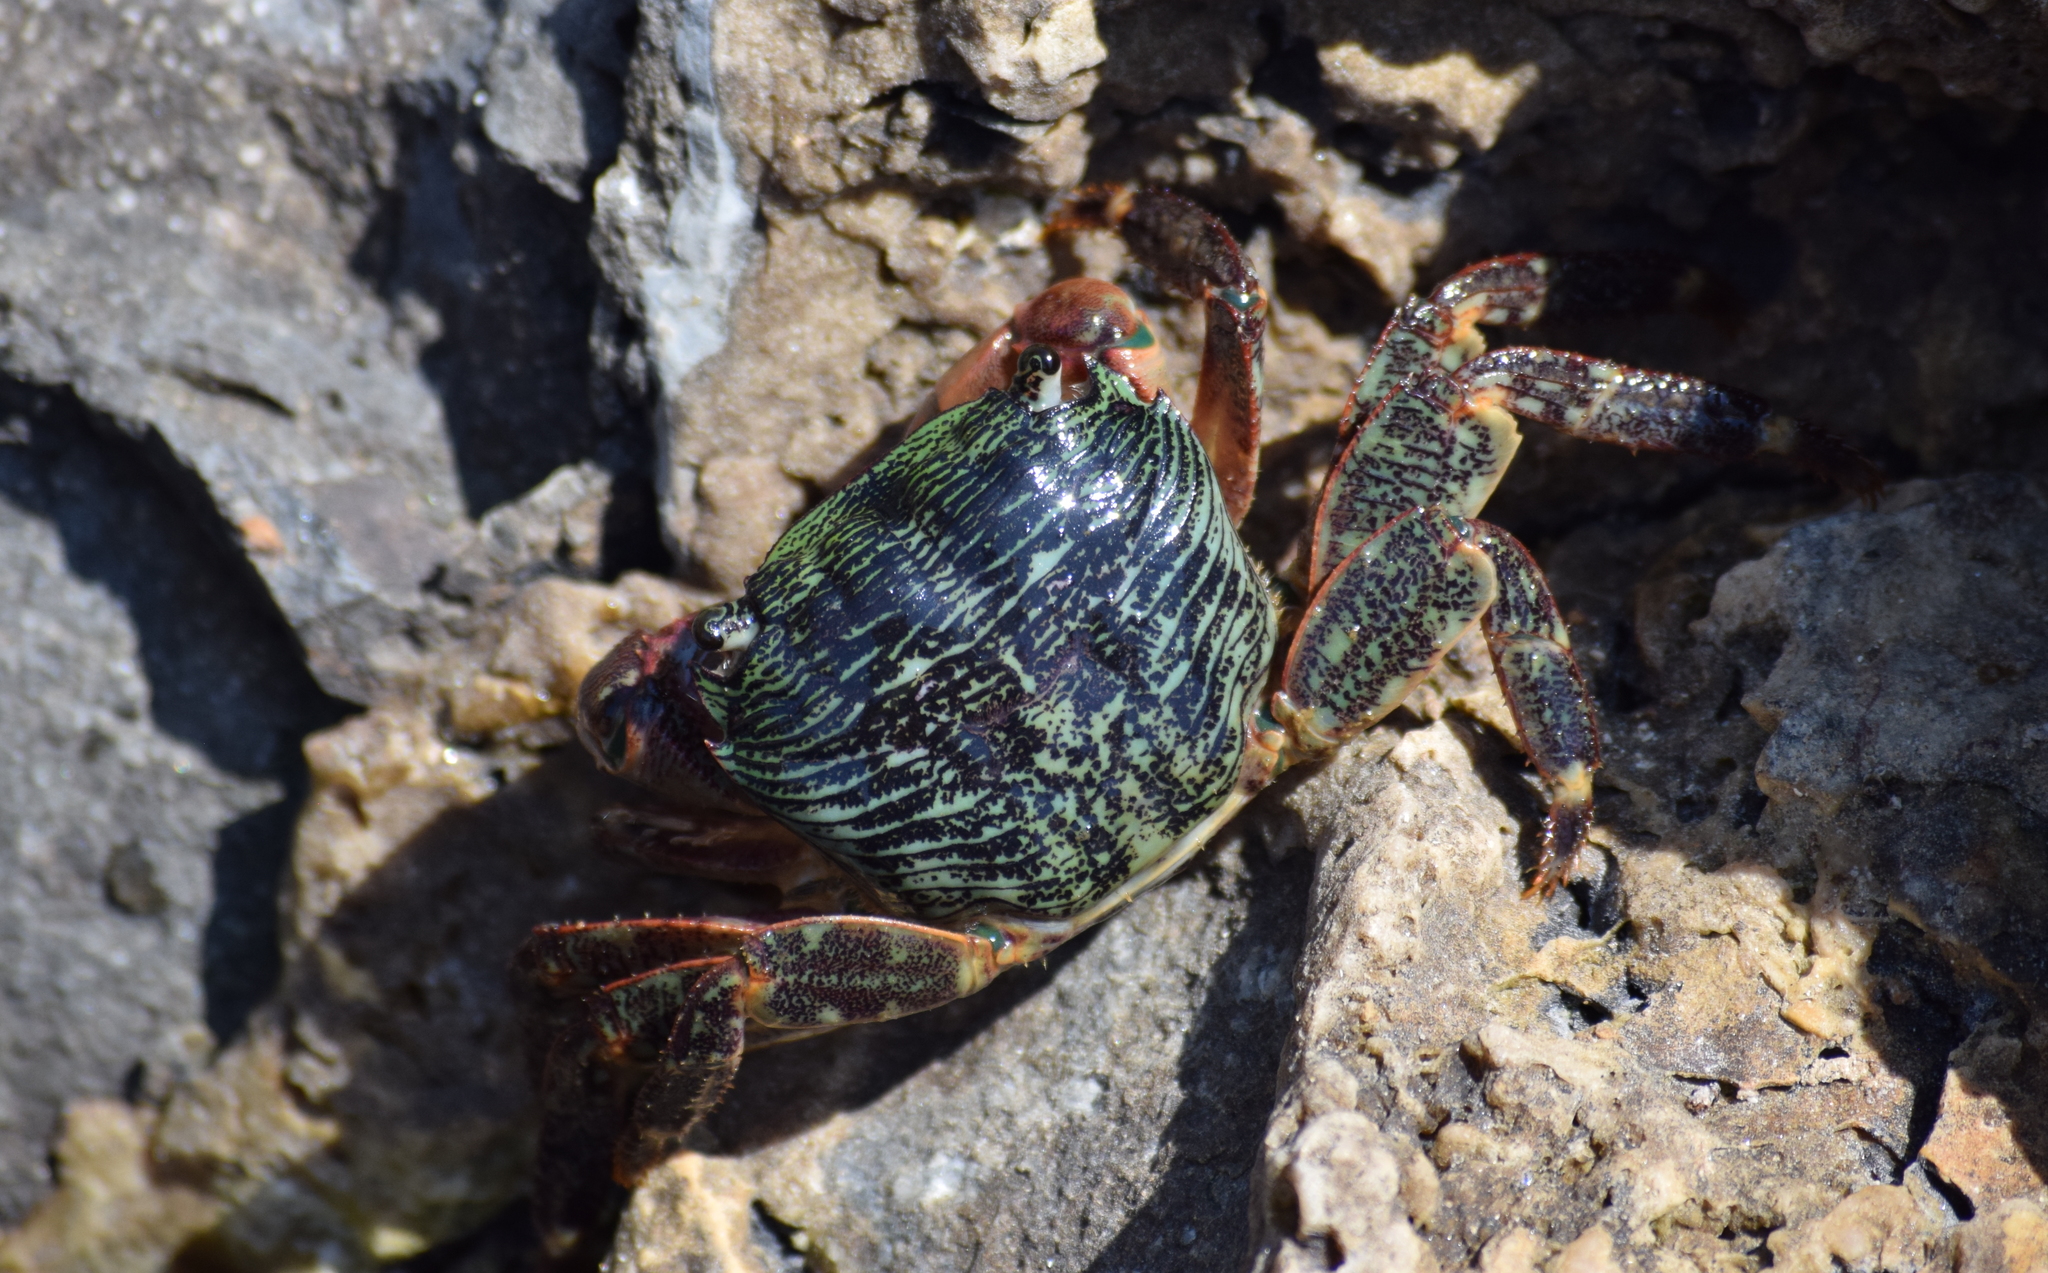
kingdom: Animalia
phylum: Arthropoda
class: Malacostraca
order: Decapoda
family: Grapsidae
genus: Pachygrapsus
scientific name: Pachygrapsus crassipes
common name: Striped shore crab
